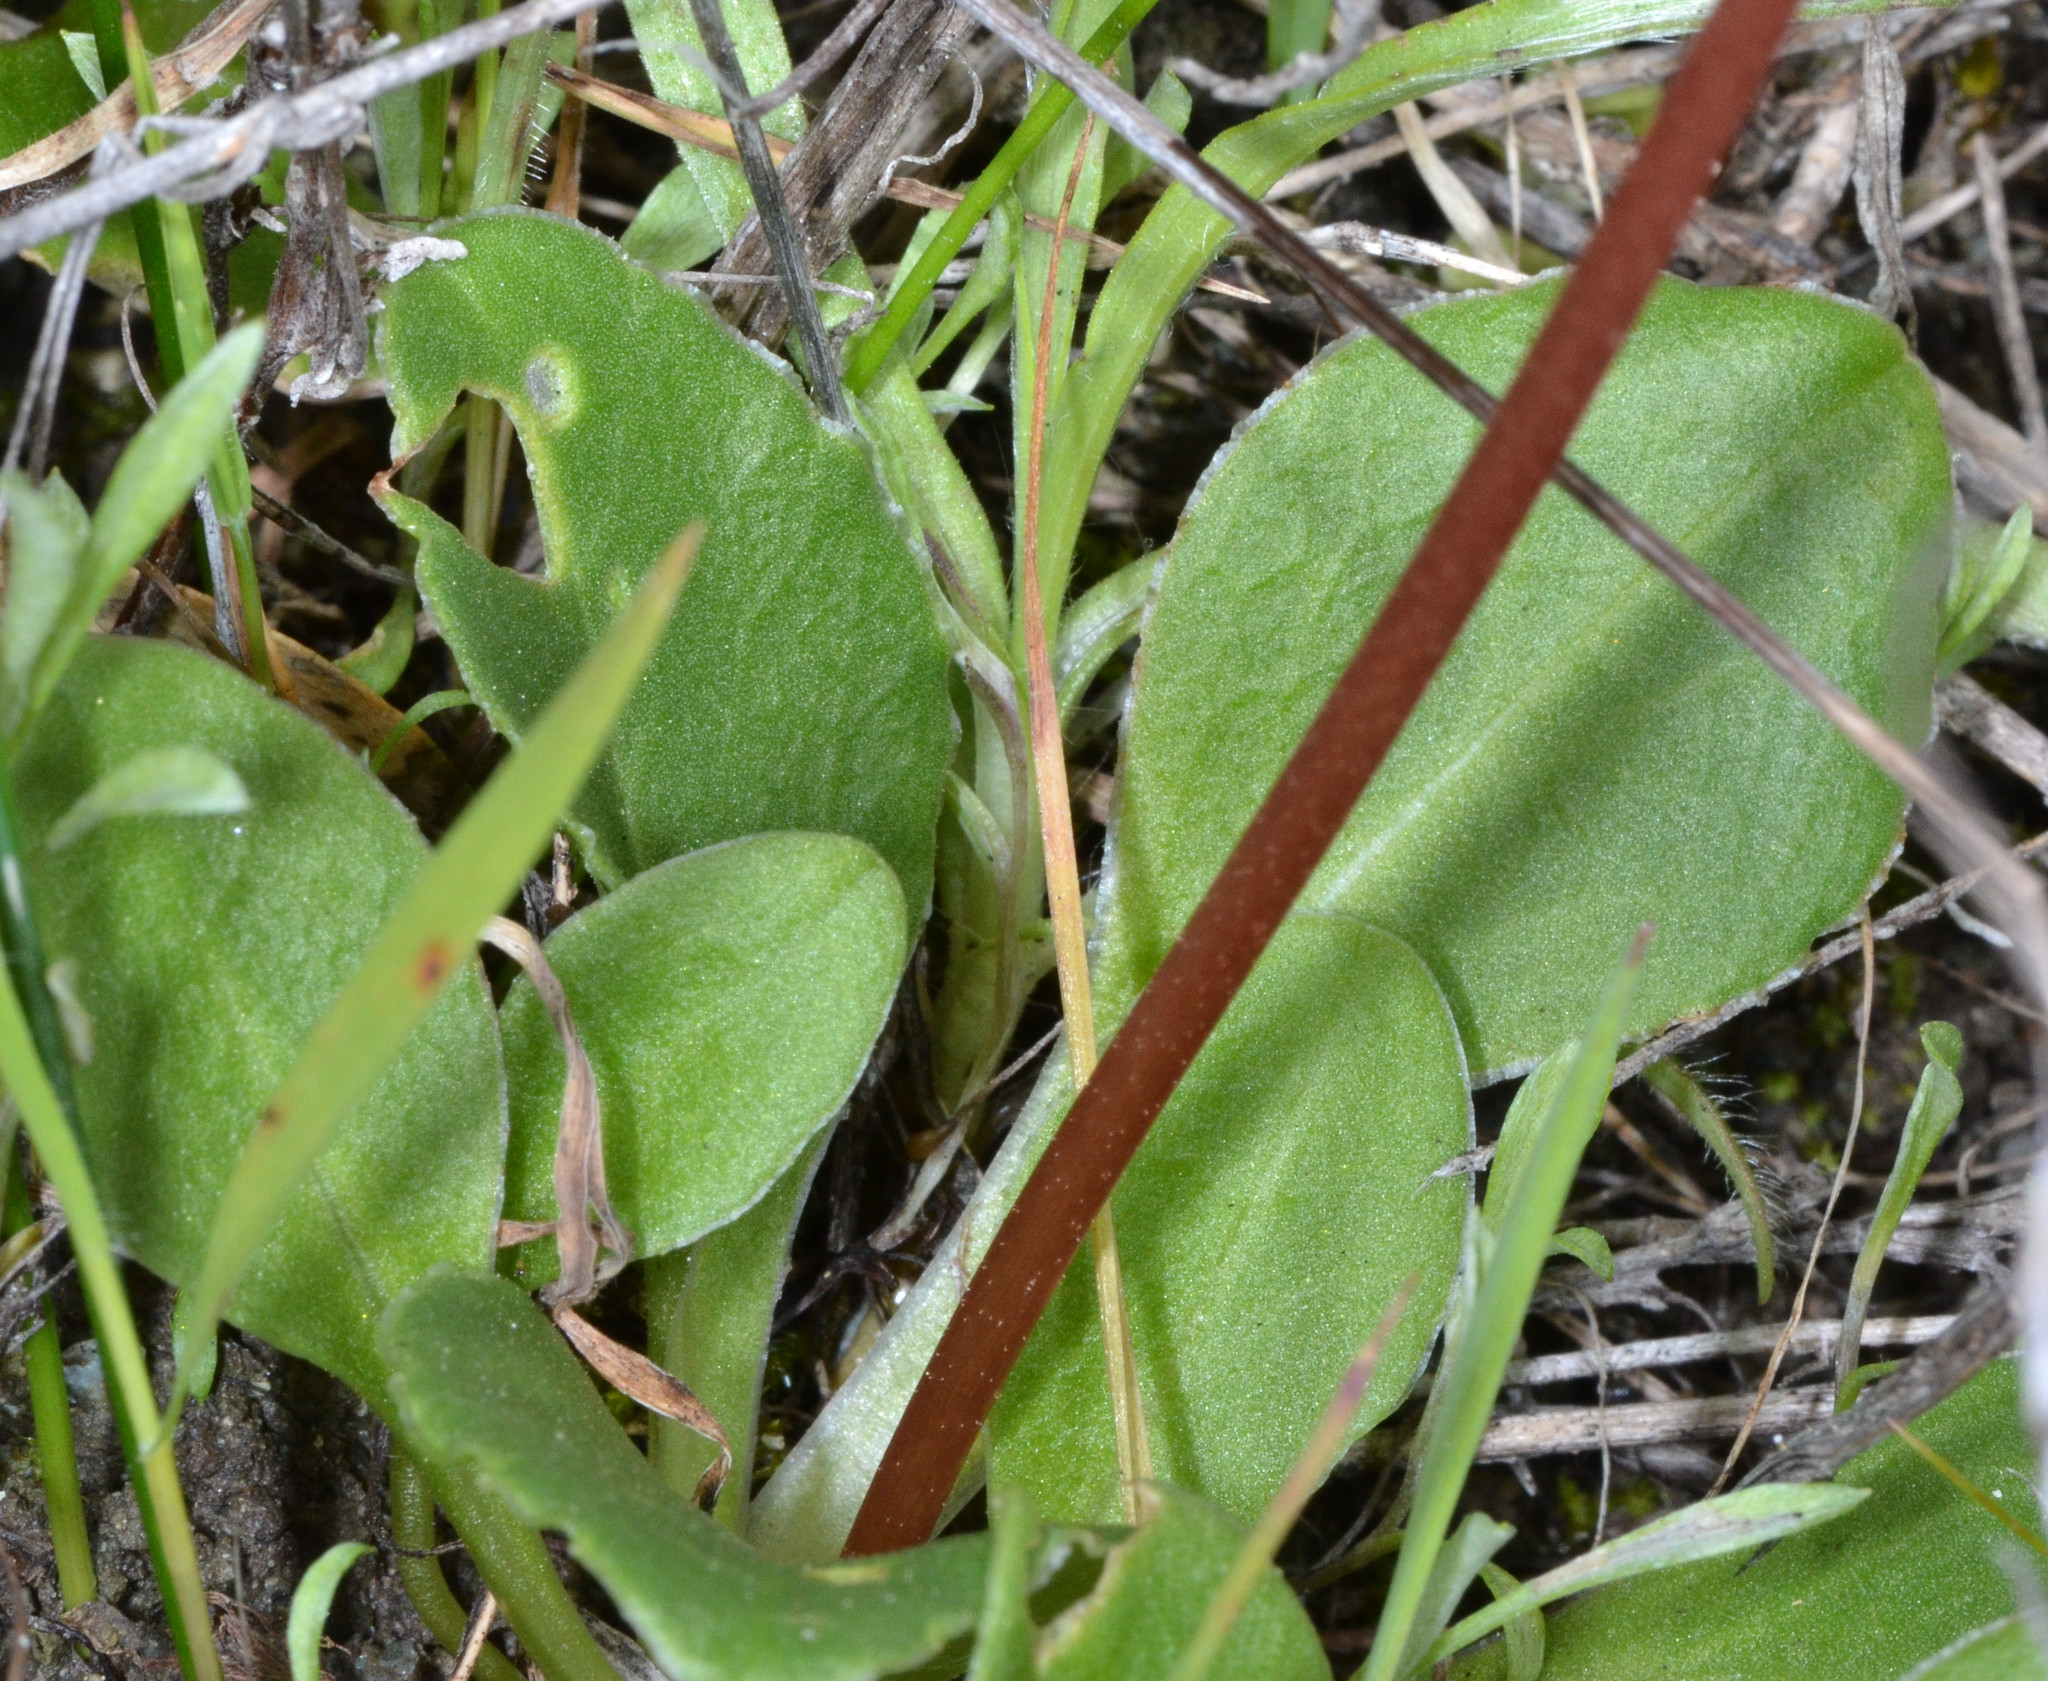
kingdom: Plantae
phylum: Tracheophyta
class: Magnoliopsida
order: Ericales
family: Primulaceae
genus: Dodecatheon
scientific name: Dodecatheon hendersonii
